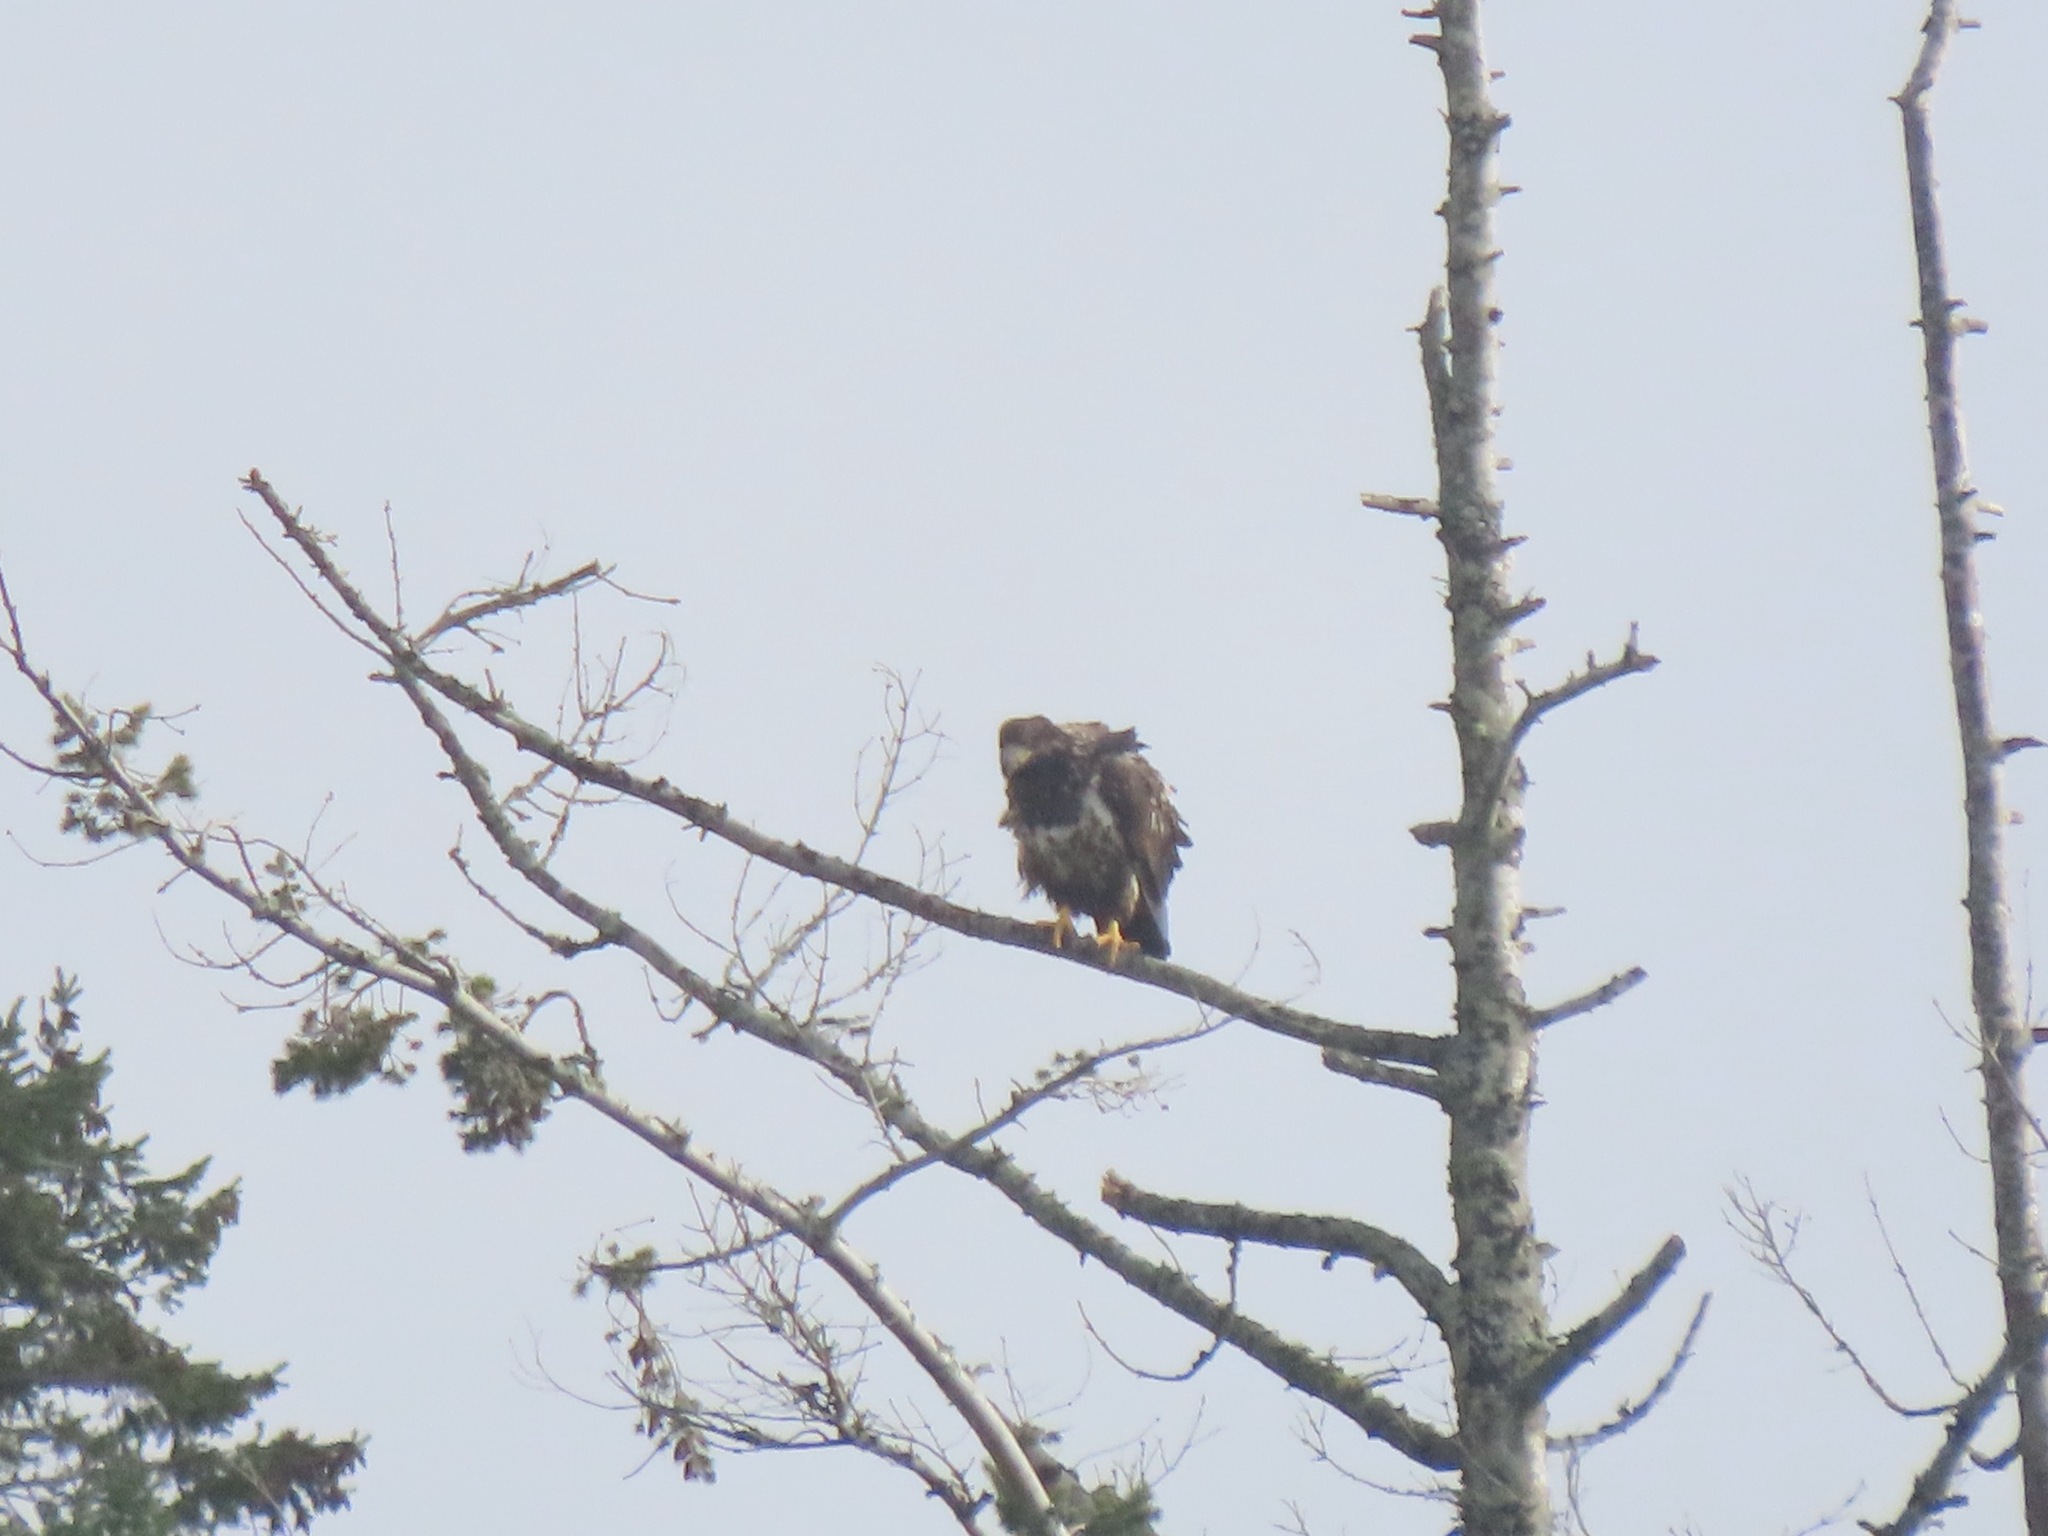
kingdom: Animalia
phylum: Chordata
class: Aves
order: Accipitriformes
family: Accipitridae
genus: Haliaeetus
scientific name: Haliaeetus leucocephalus
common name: Bald eagle
